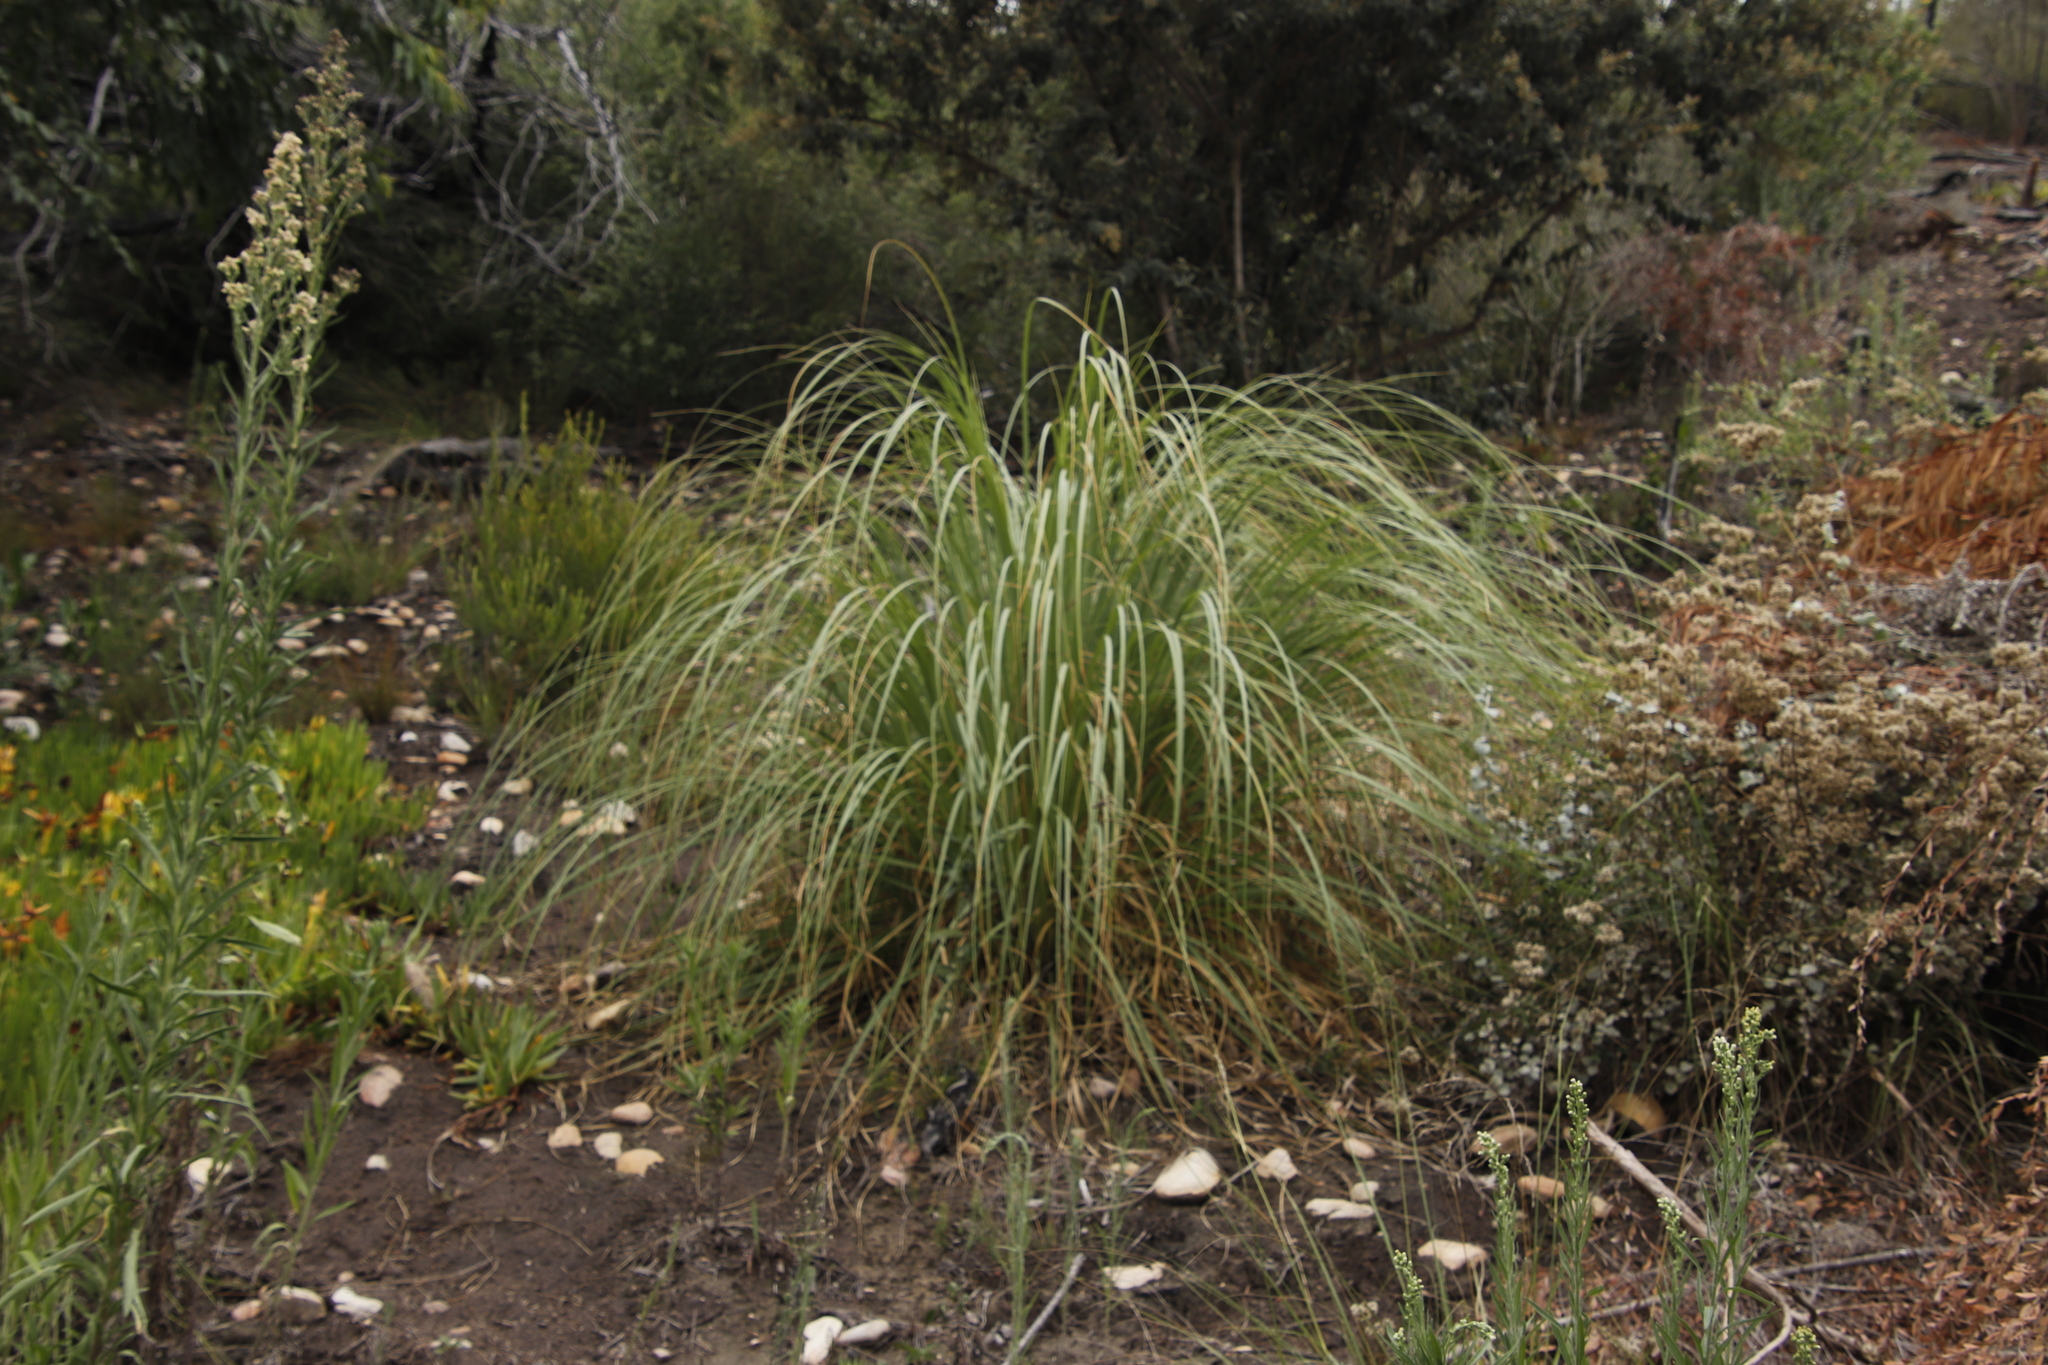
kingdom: Plantae
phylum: Tracheophyta
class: Liliopsida
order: Poales
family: Poaceae
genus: Cortaderia
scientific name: Cortaderia selloana
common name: Uruguayan pampas grass
